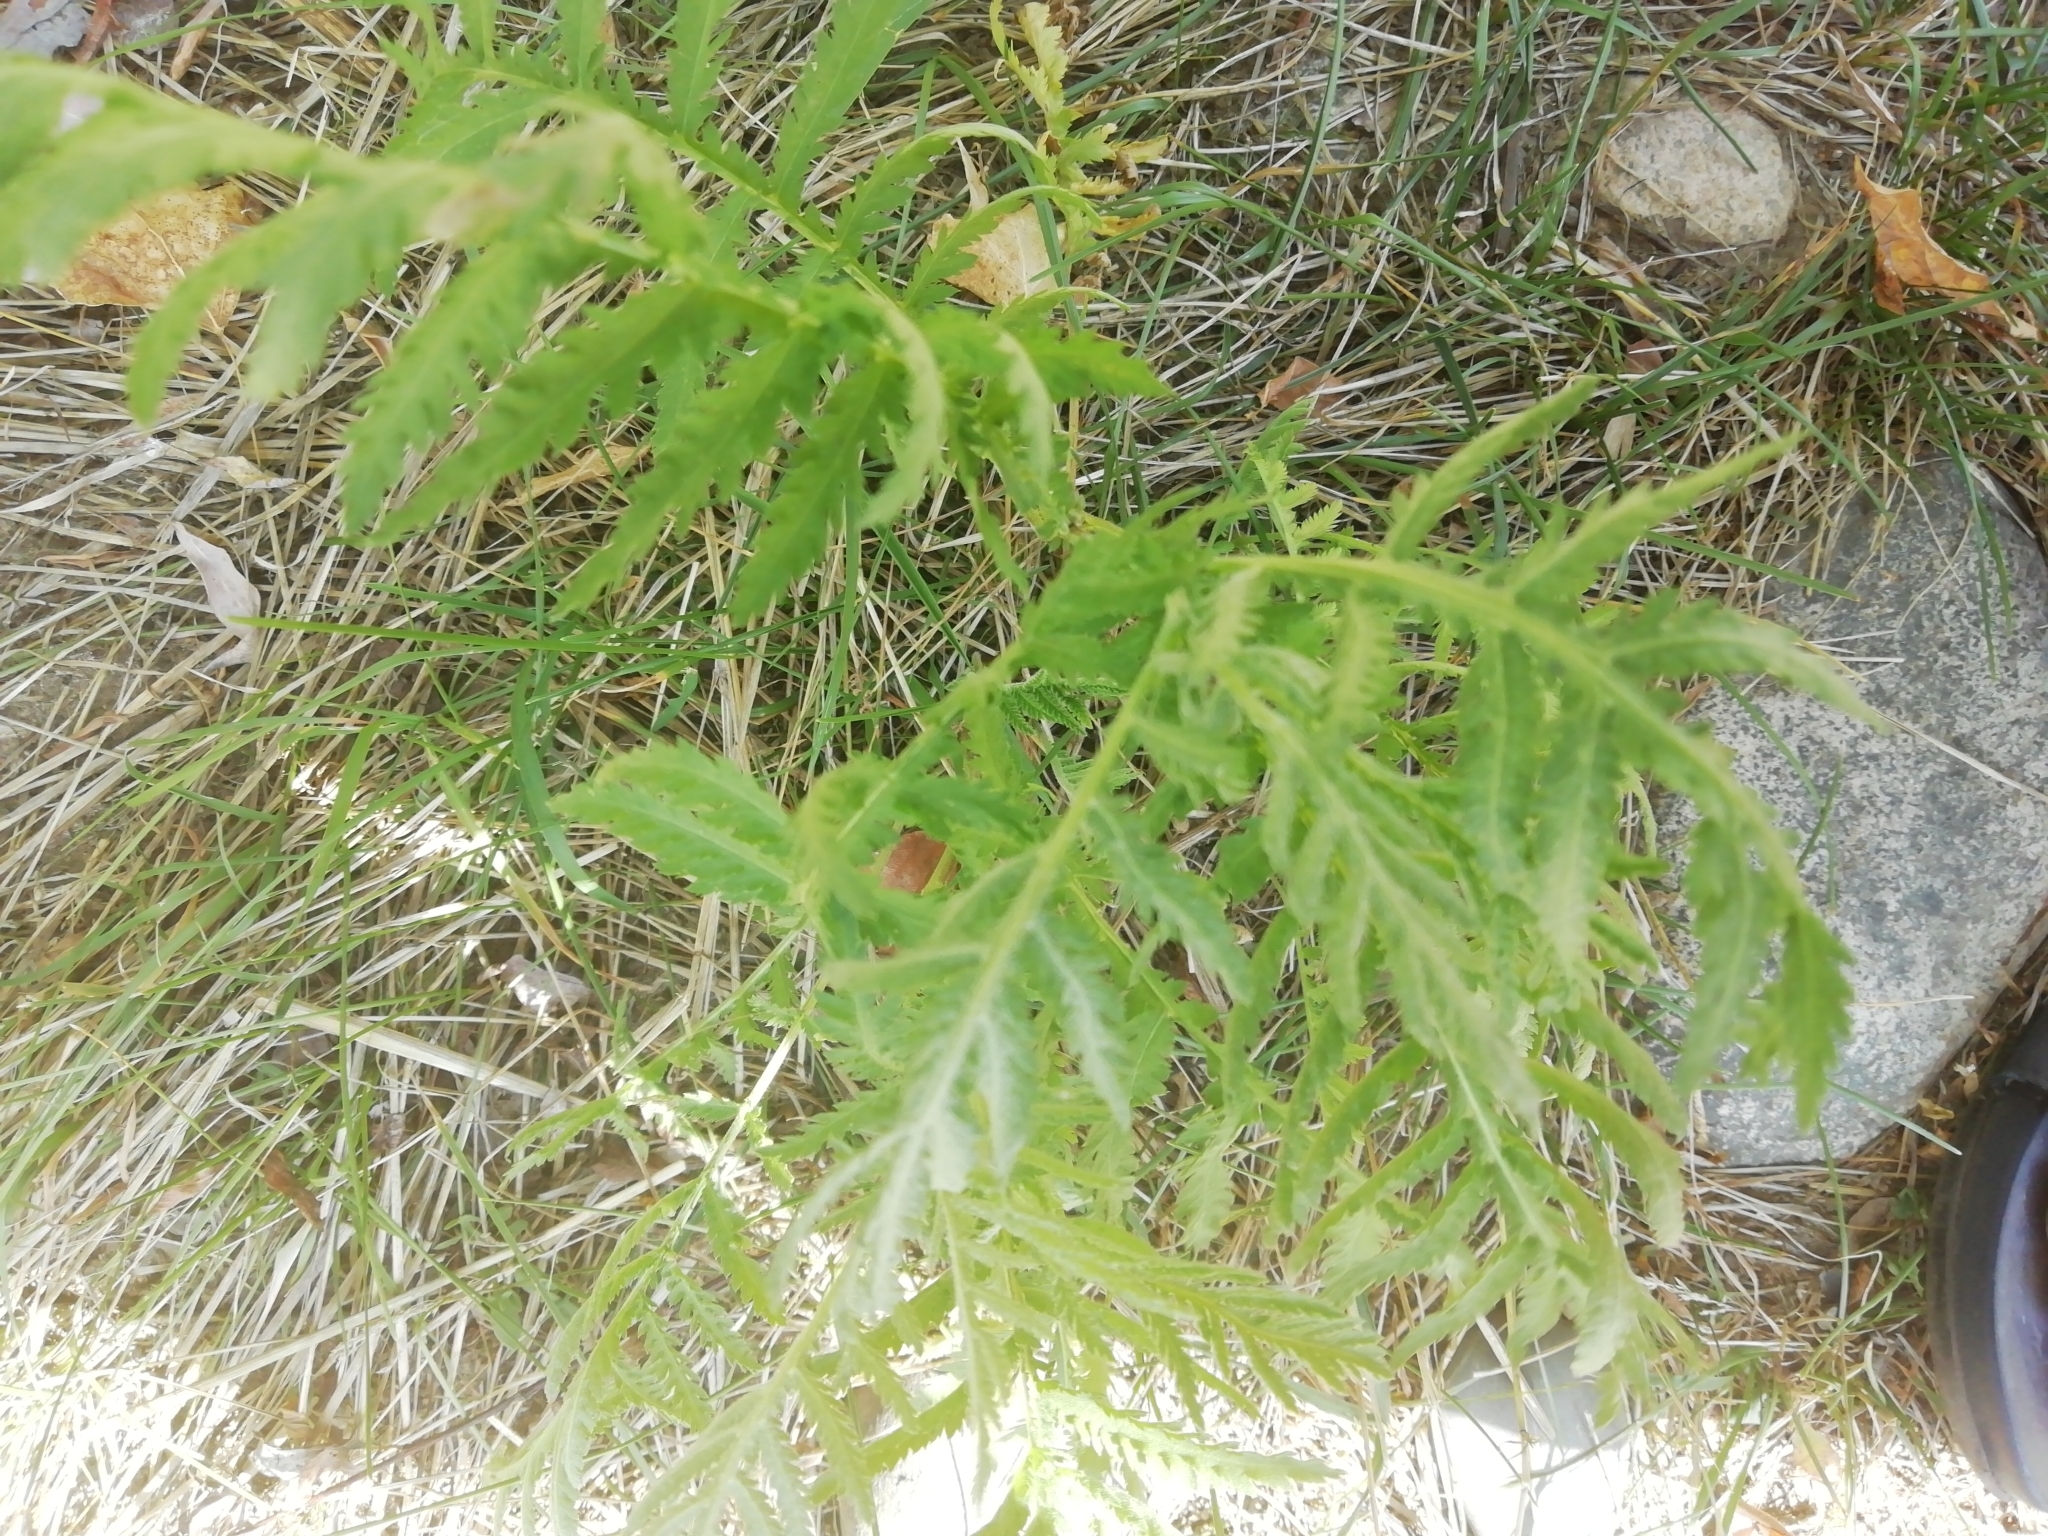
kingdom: Plantae
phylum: Tracheophyta
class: Magnoliopsida
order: Asterales
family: Asteraceae
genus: Tanacetum
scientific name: Tanacetum vulgare
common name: Common tansy
